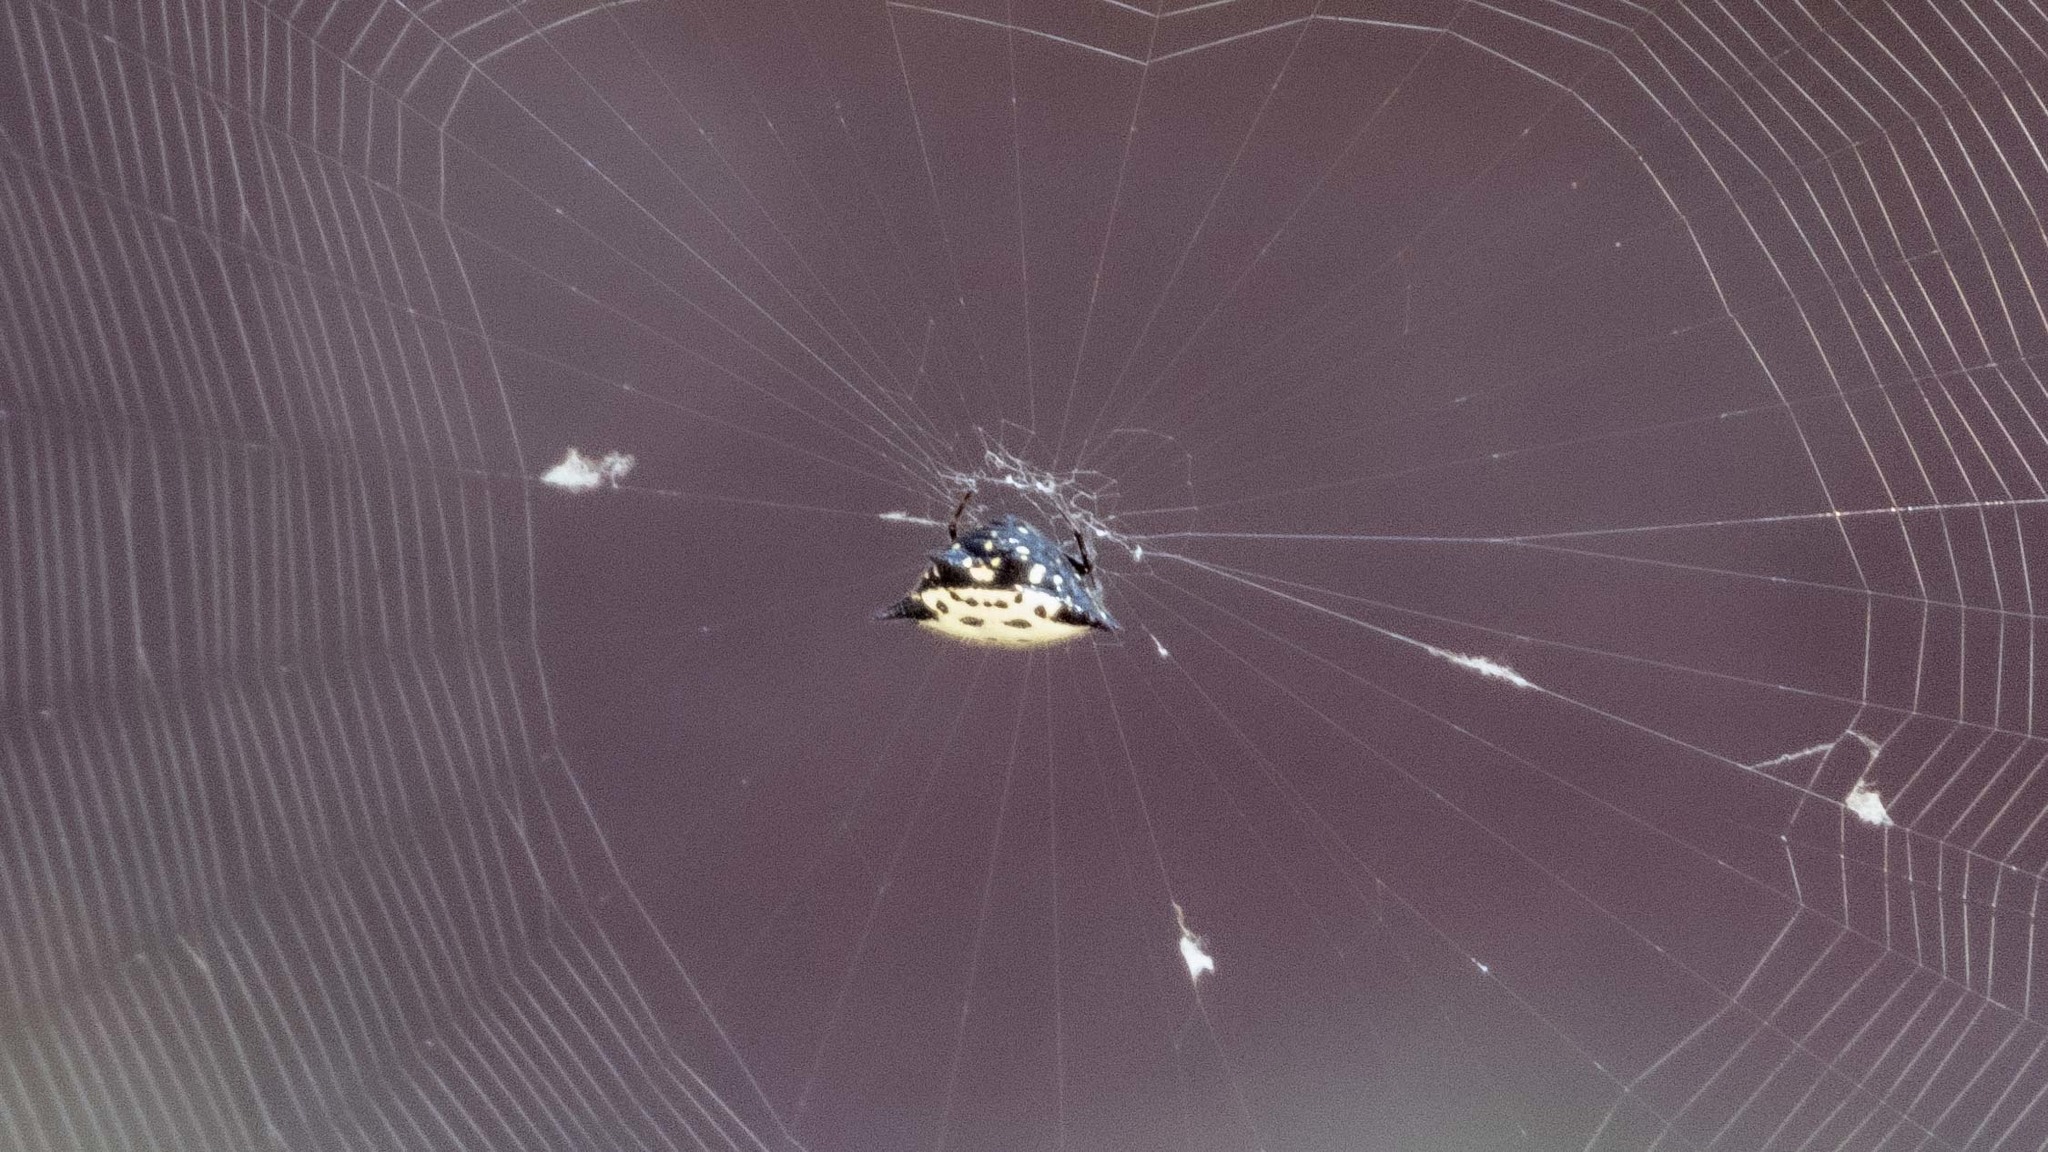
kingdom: Animalia
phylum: Arthropoda
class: Arachnida
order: Araneae
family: Araneidae
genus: Gasteracantha
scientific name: Gasteracantha cancriformis
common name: Orb weavers
